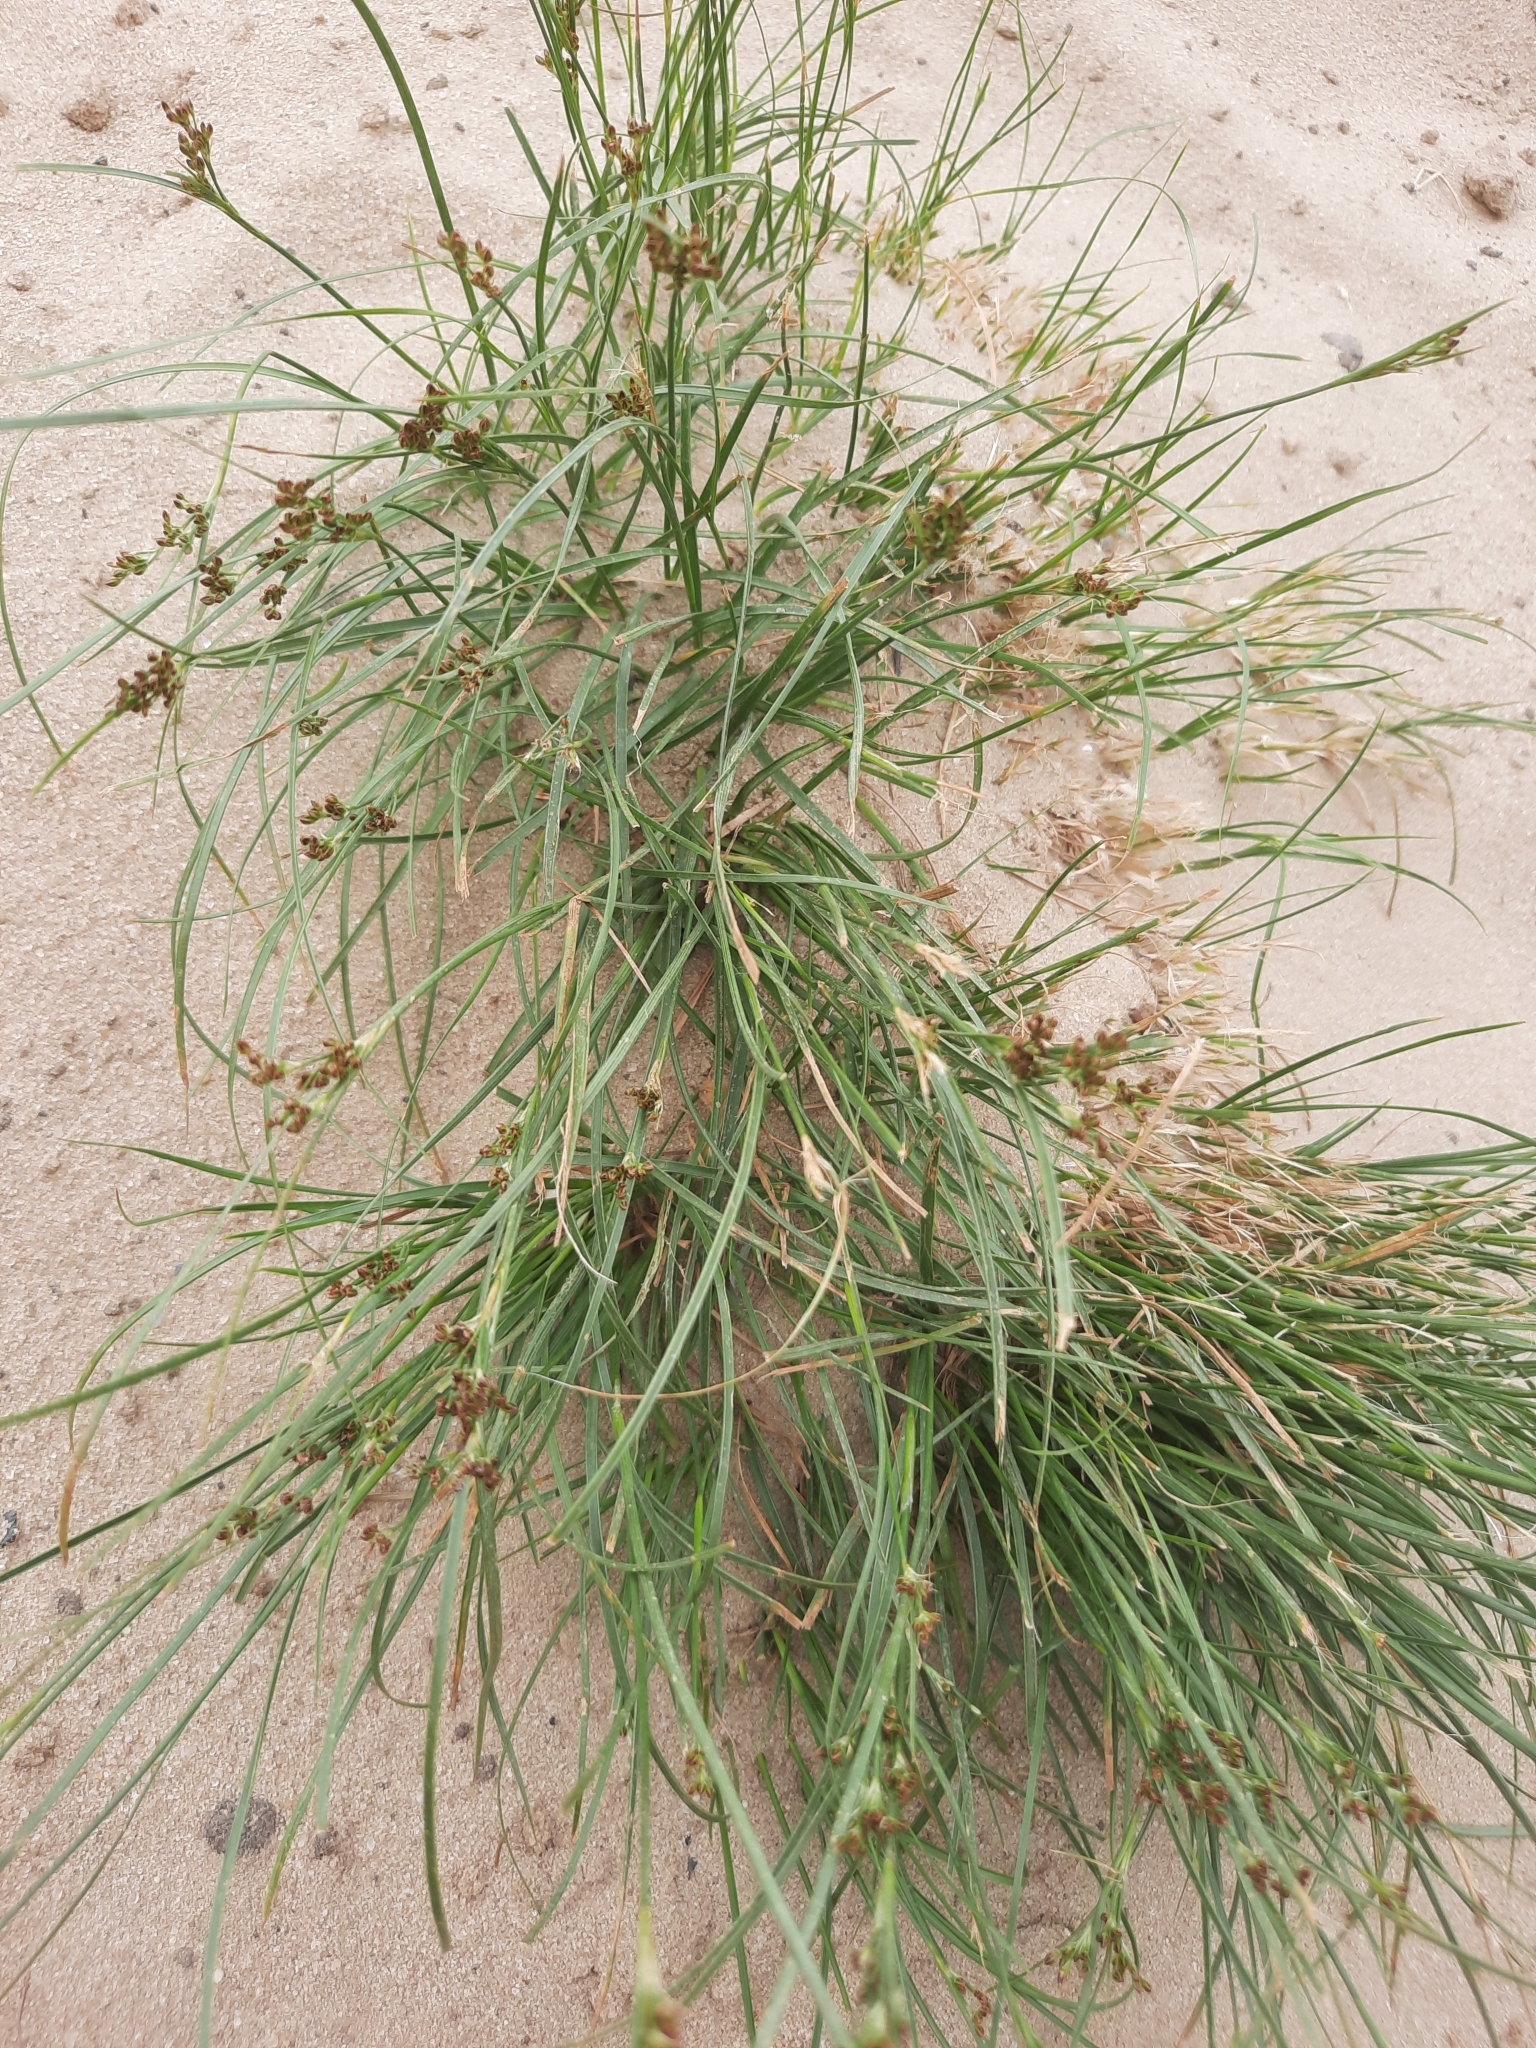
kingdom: Plantae
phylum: Tracheophyta
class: Liliopsida
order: Poales
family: Juncaceae
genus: Juncus
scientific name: Juncus compressus
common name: Round-fruited rush
